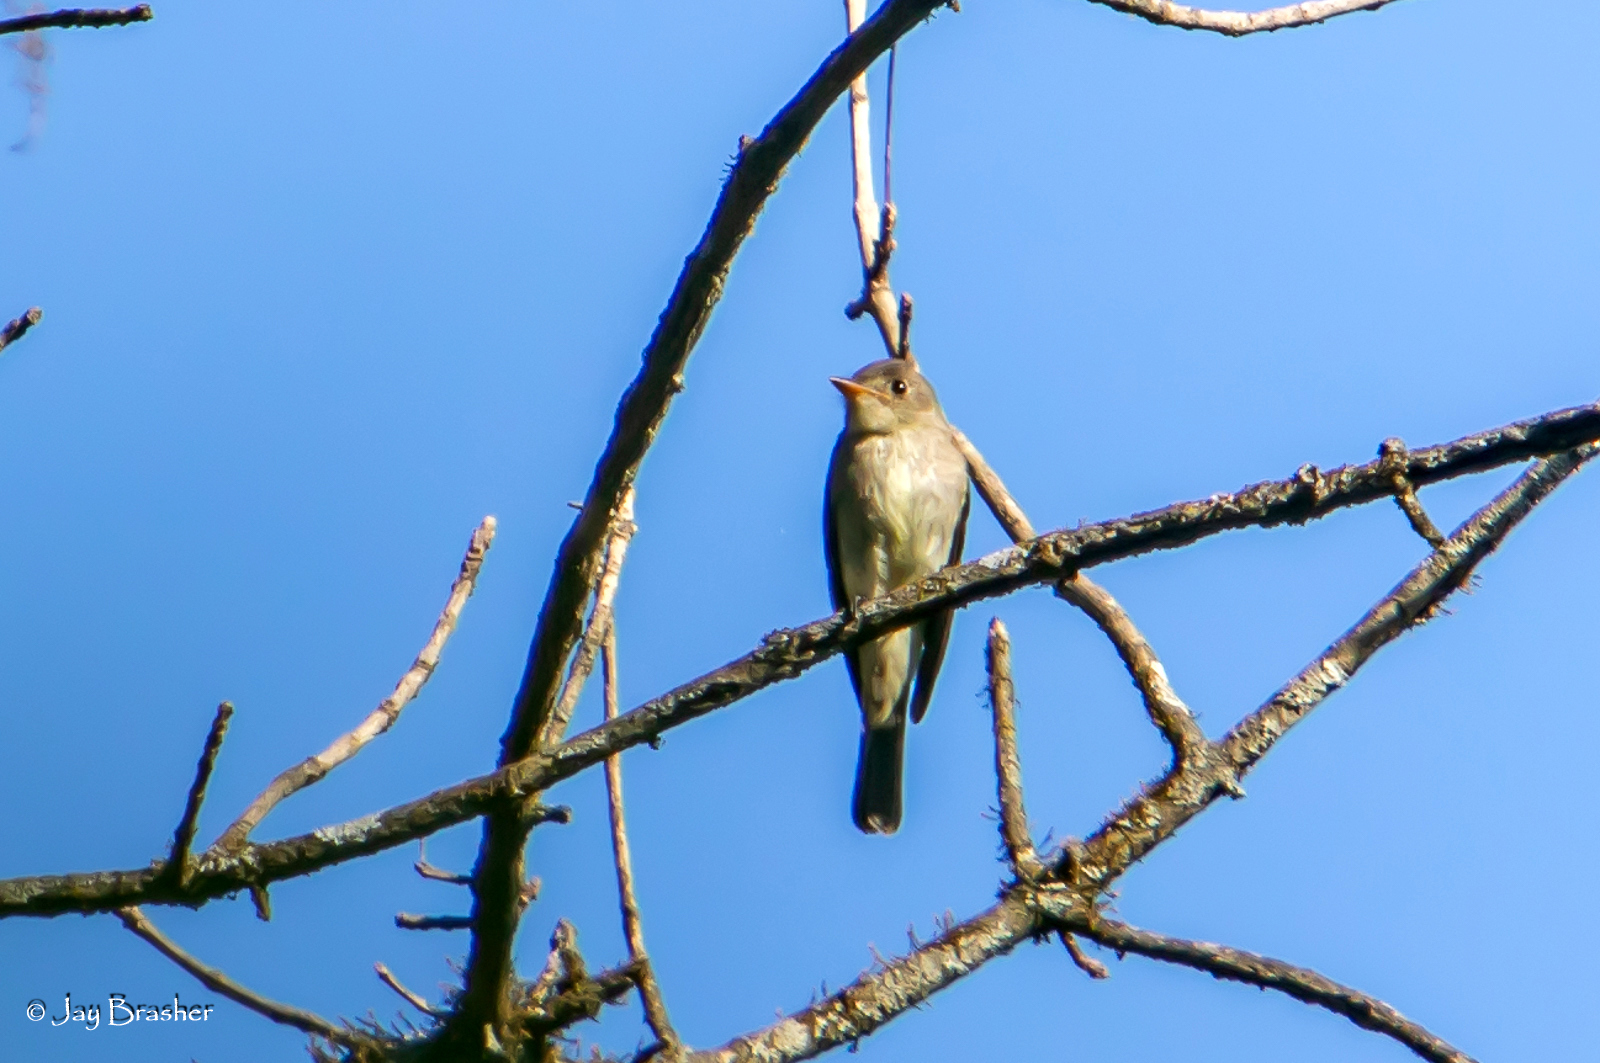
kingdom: Animalia
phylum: Chordata
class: Aves
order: Passeriformes
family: Tyrannidae
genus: Contopus
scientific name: Contopus virens
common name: Eastern wood-pewee
